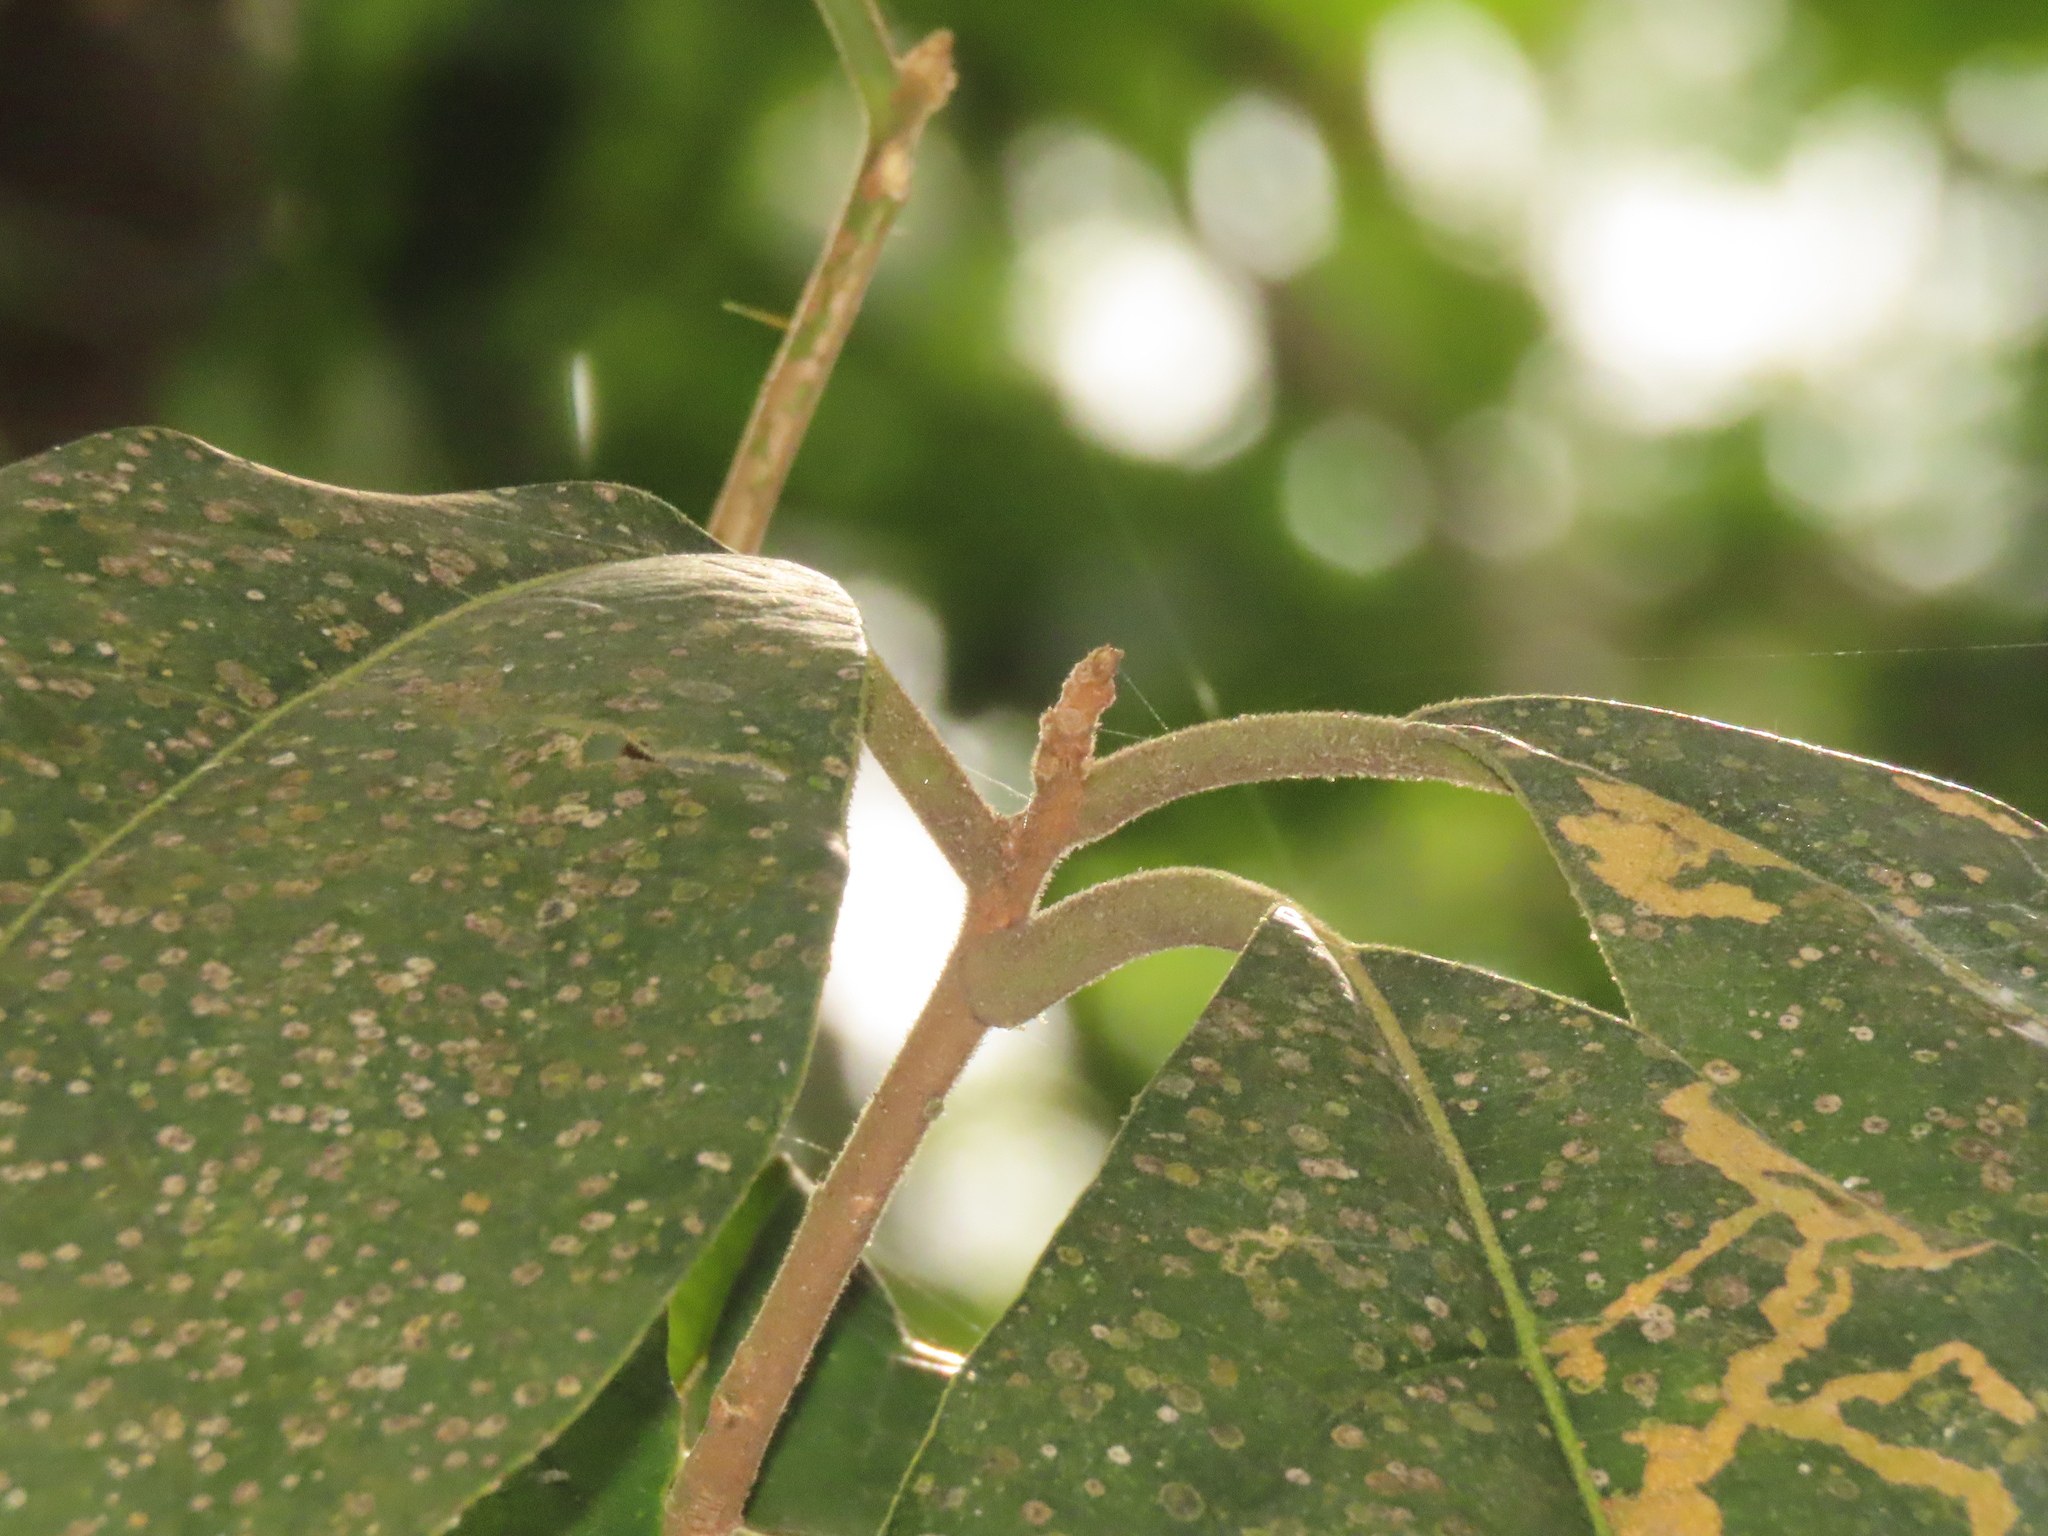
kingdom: Plantae
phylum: Tracheophyta
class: Magnoliopsida
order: Laurales
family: Lauraceae
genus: Litsea
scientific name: Litsea akoensis
